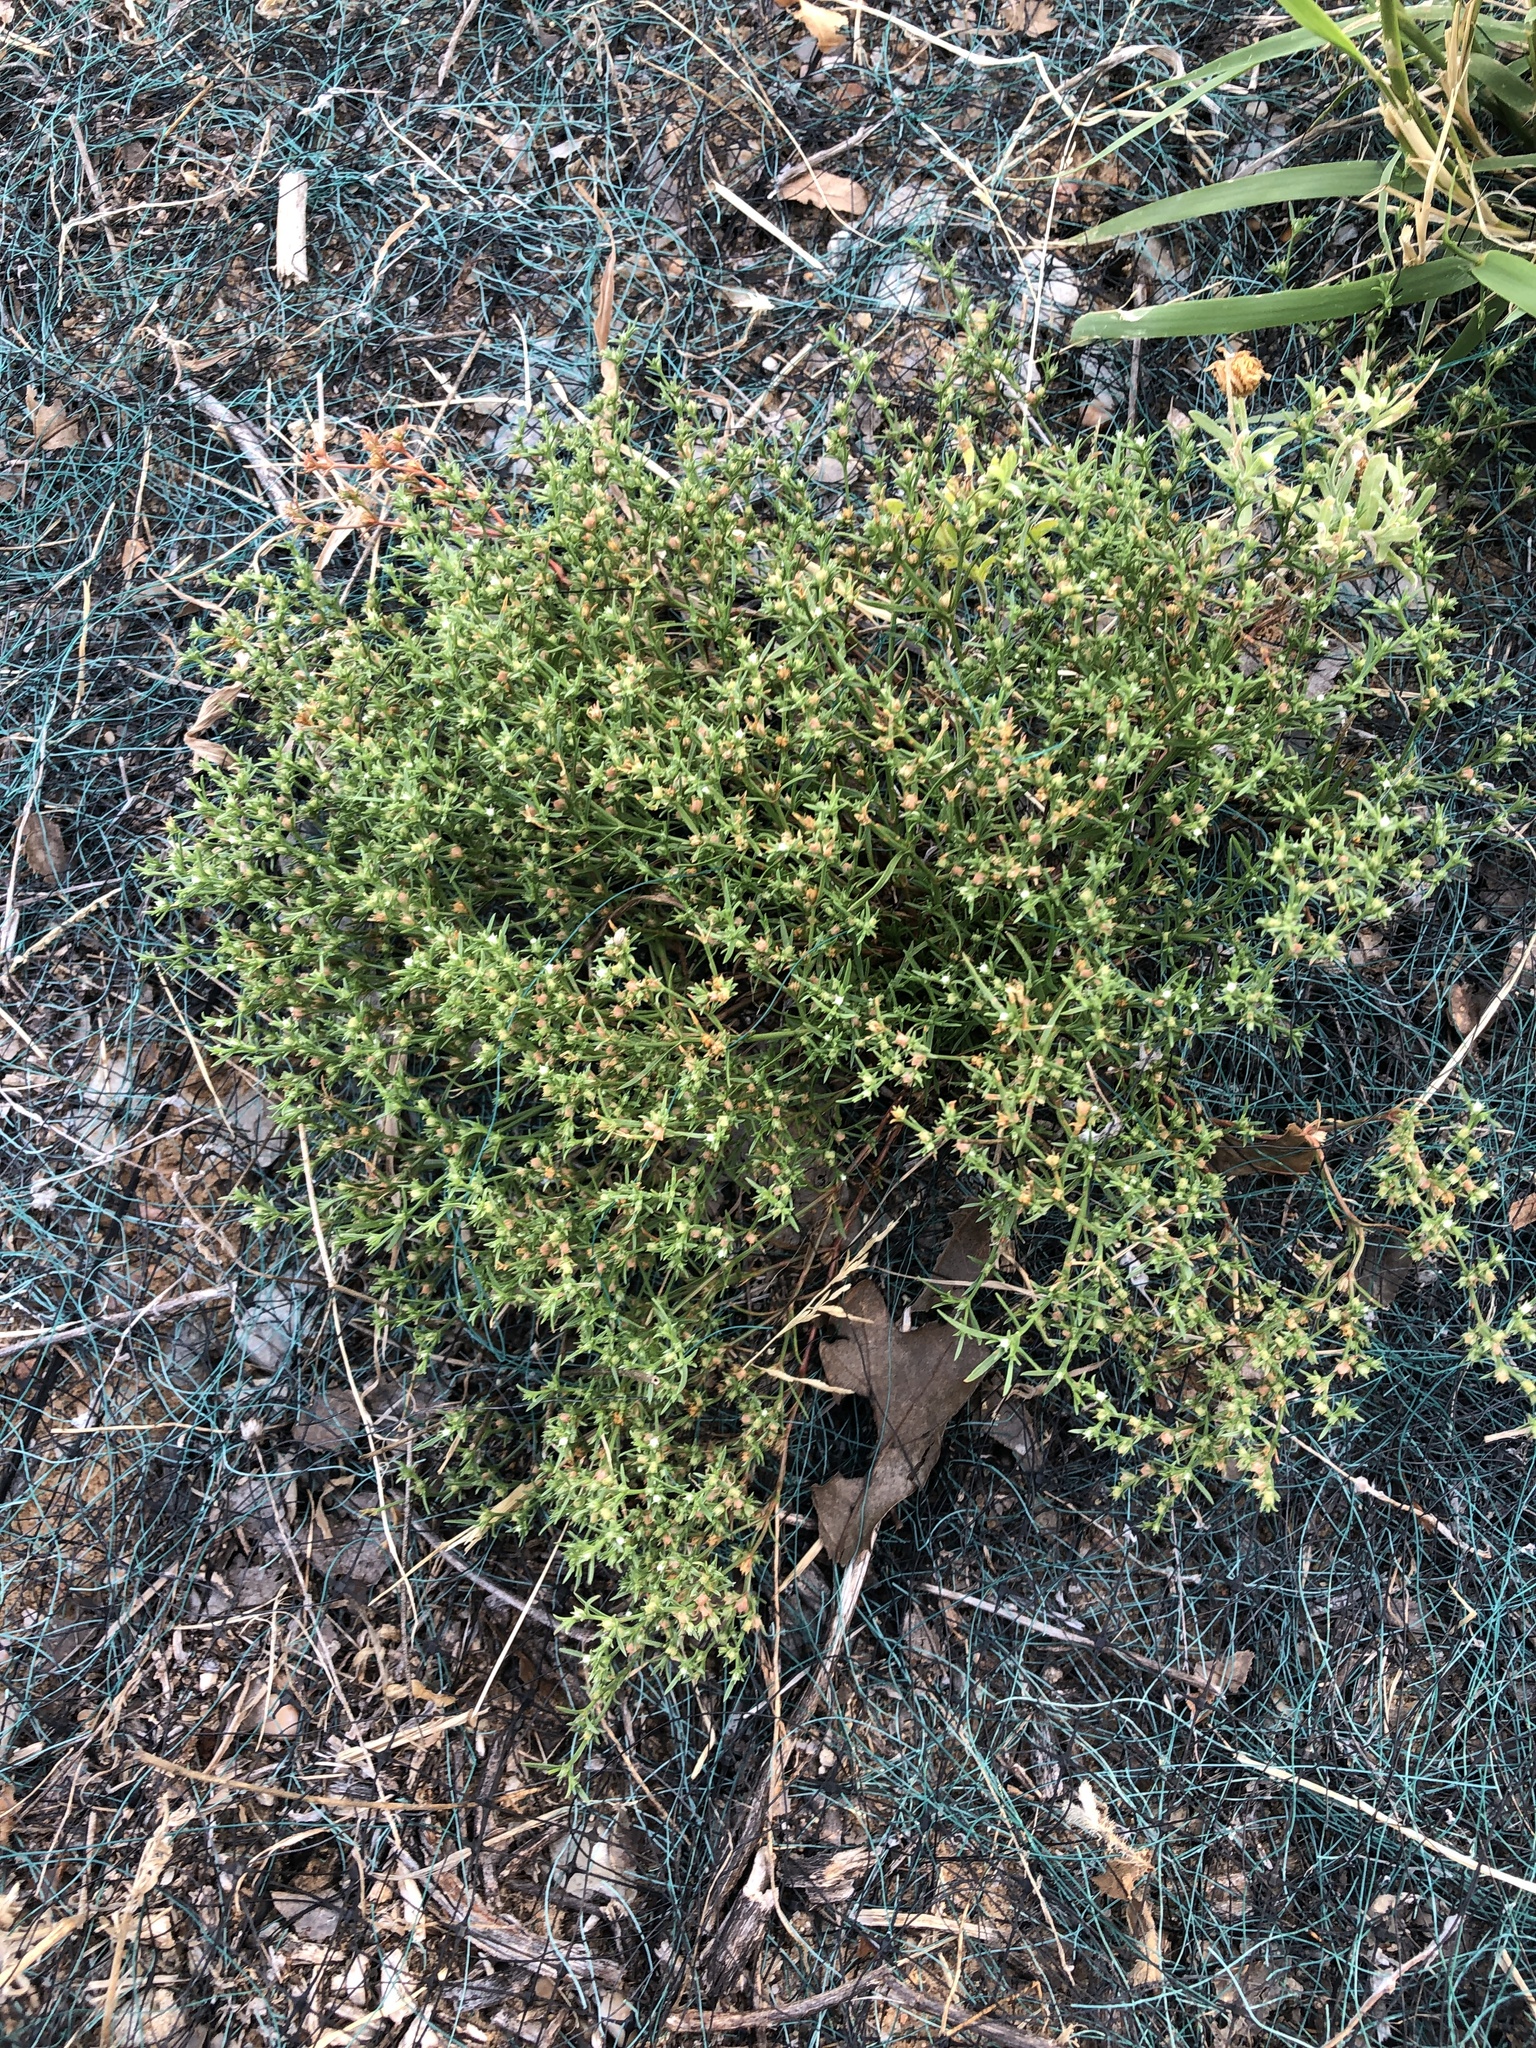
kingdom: Plantae
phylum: Tracheophyta
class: Magnoliopsida
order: Lamiales
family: Tetrachondraceae
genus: Polypremum
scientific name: Polypremum procumbens
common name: Juniper-leaf
